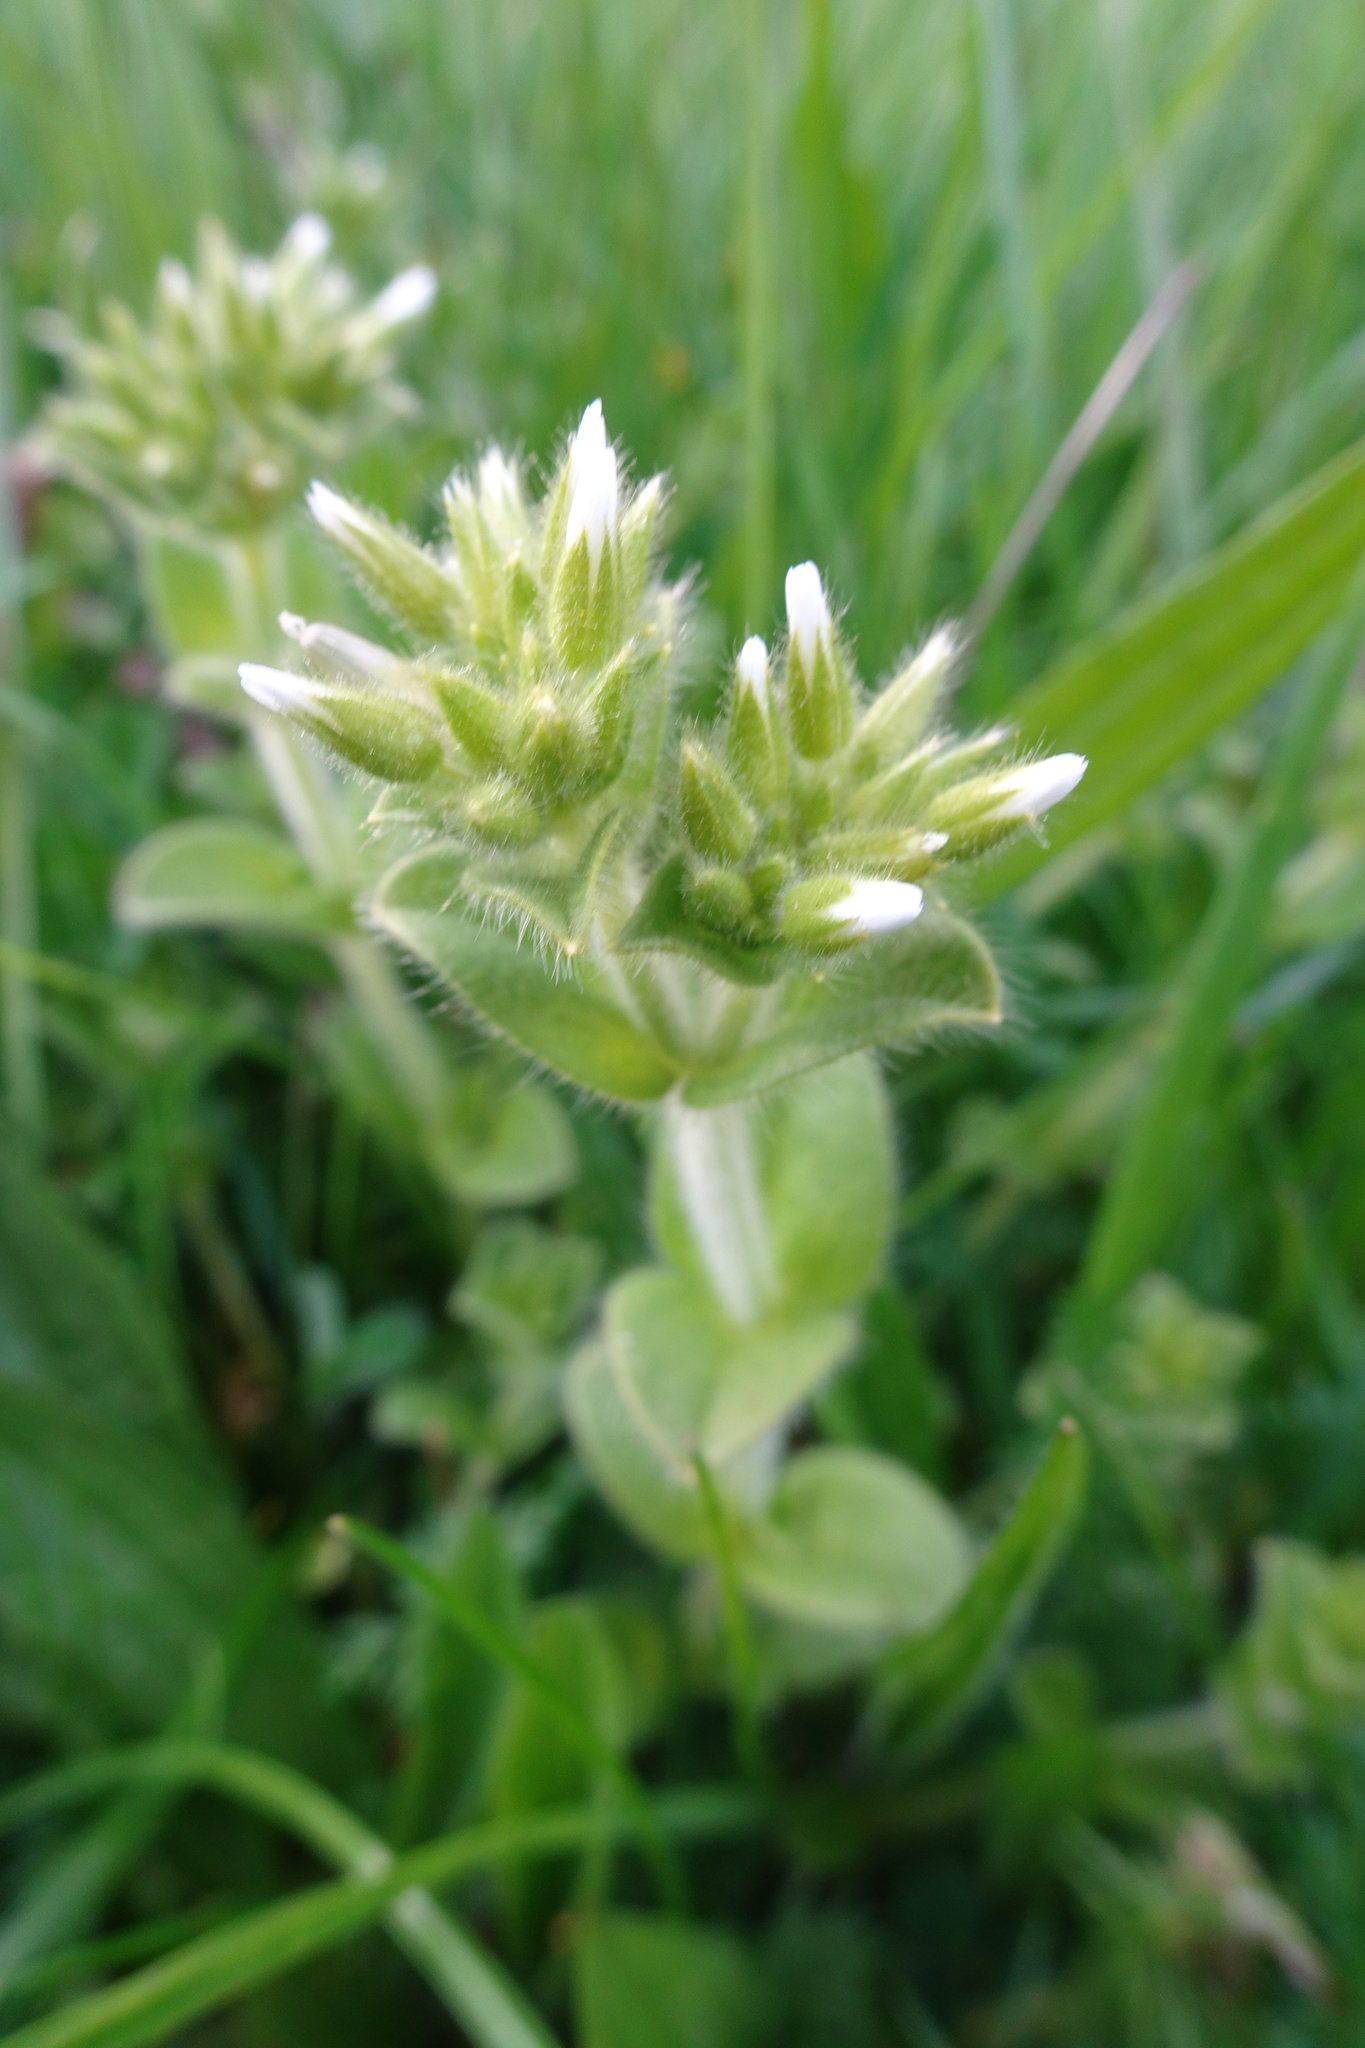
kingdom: Plantae
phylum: Tracheophyta
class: Magnoliopsida
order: Caryophyllales
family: Caryophyllaceae
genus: Cerastium
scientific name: Cerastium glomeratum
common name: Sticky chickweed
